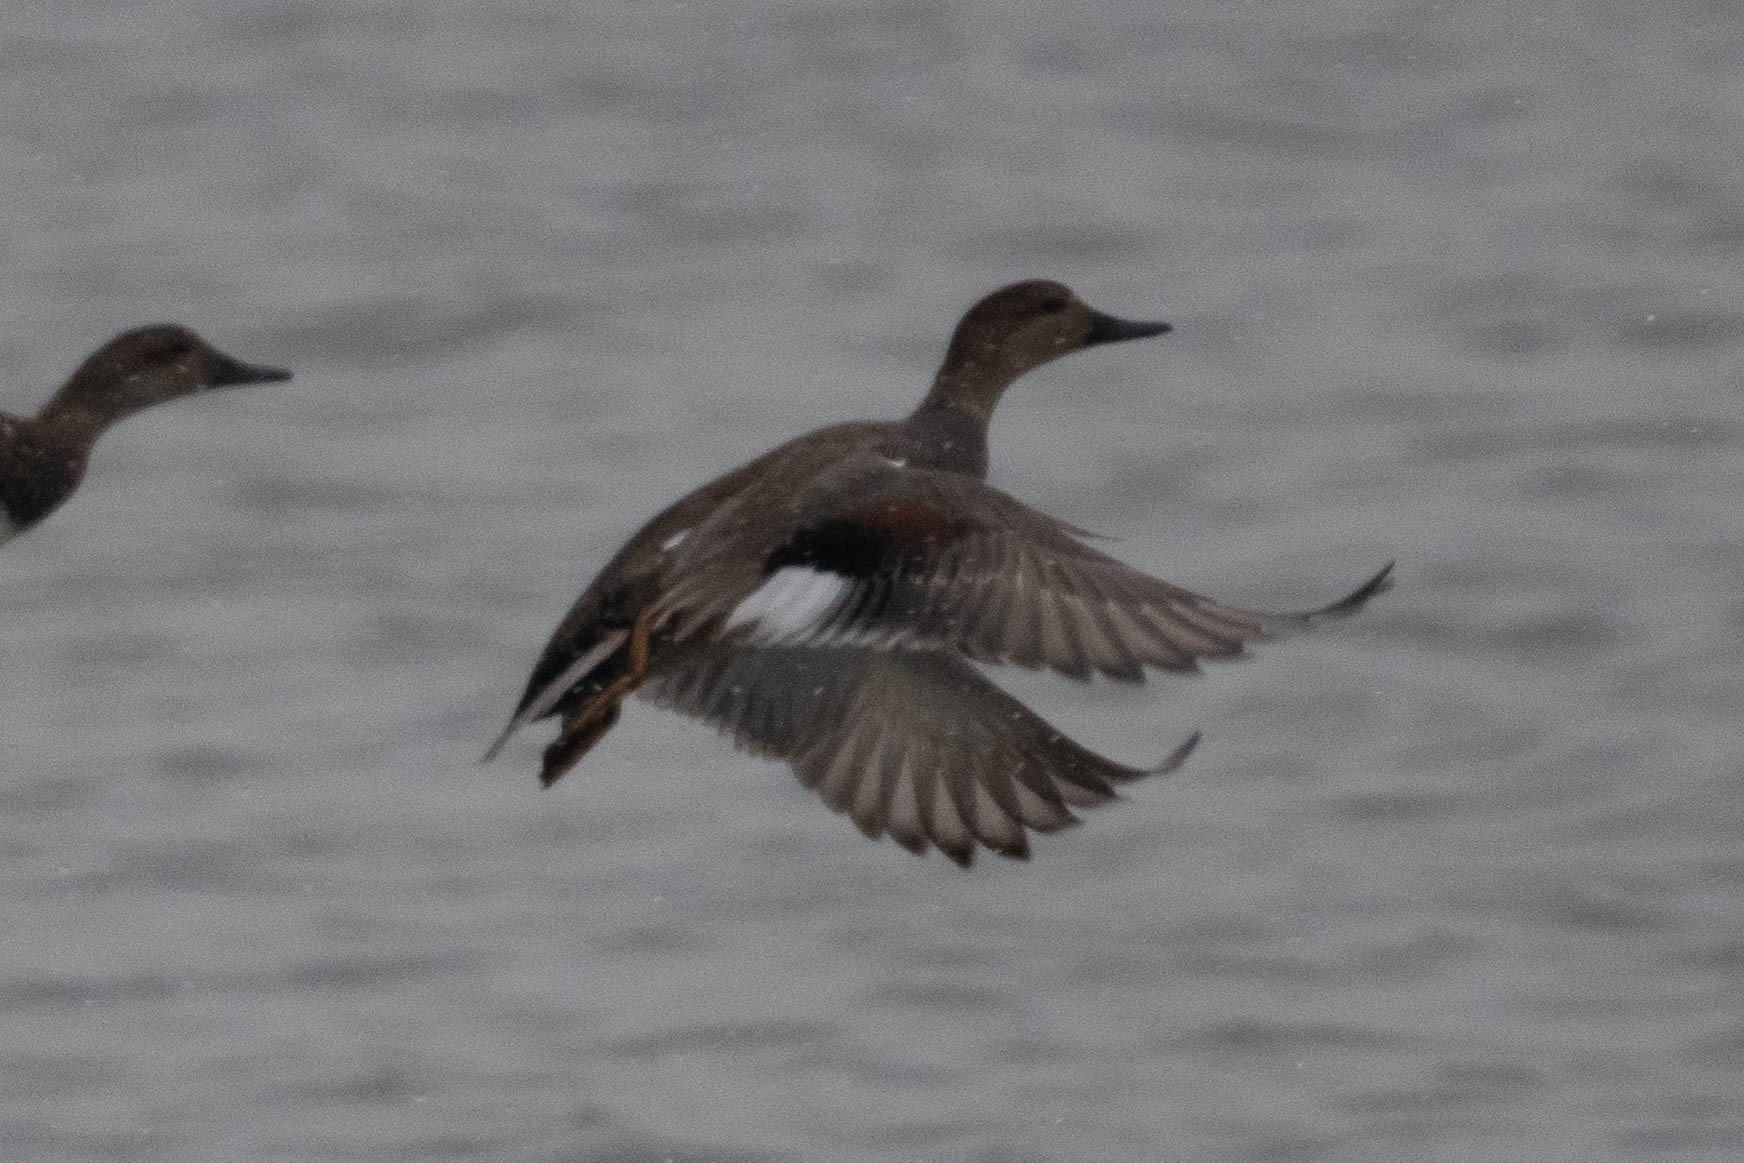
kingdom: Animalia
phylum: Chordata
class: Aves
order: Anseriformes
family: Anatidae
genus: Mareca
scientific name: Mareca strepera
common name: Gadwall
